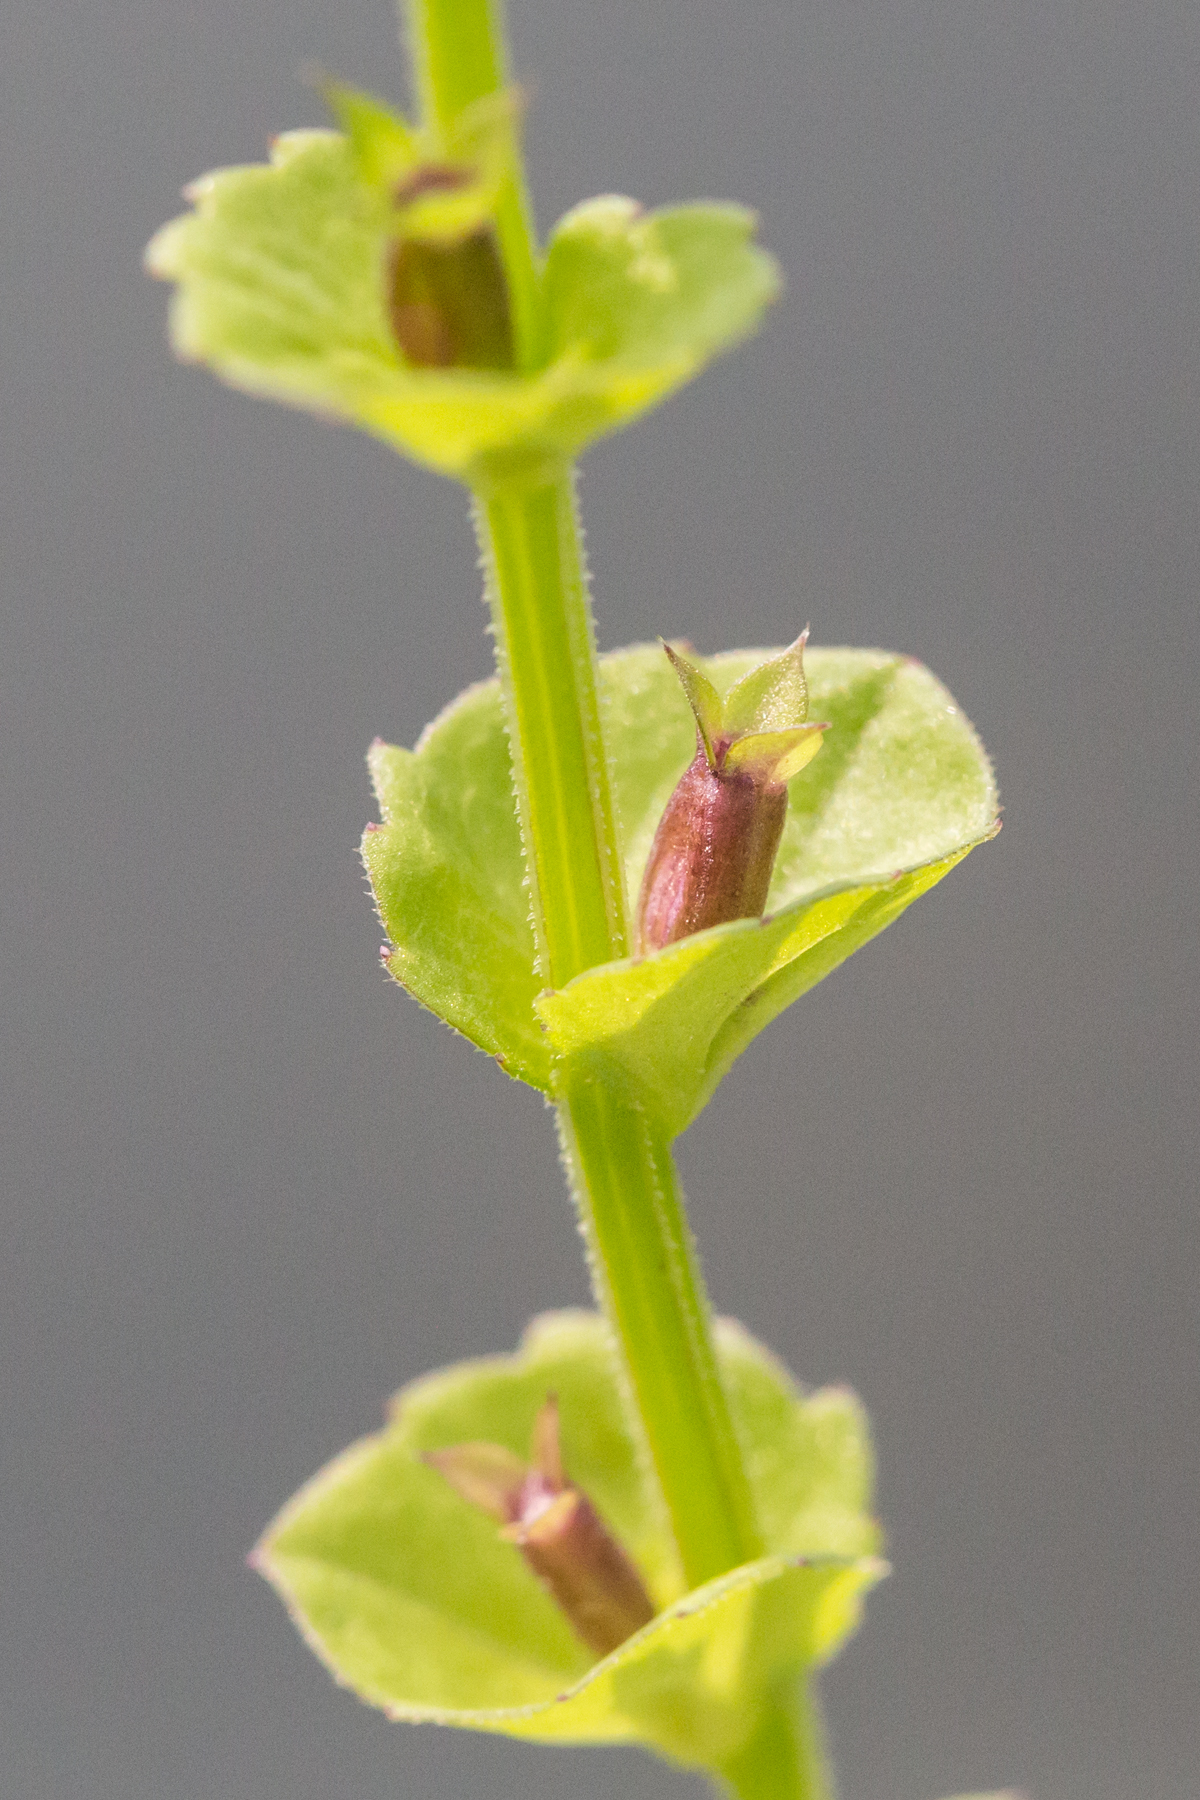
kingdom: Plantae
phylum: Tracheophyta
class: Magnoliopsida
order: Asterales
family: Campanulaceae
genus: Triodanis
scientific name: Triodanis perfoliata
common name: Clasping venus' looking-glass
